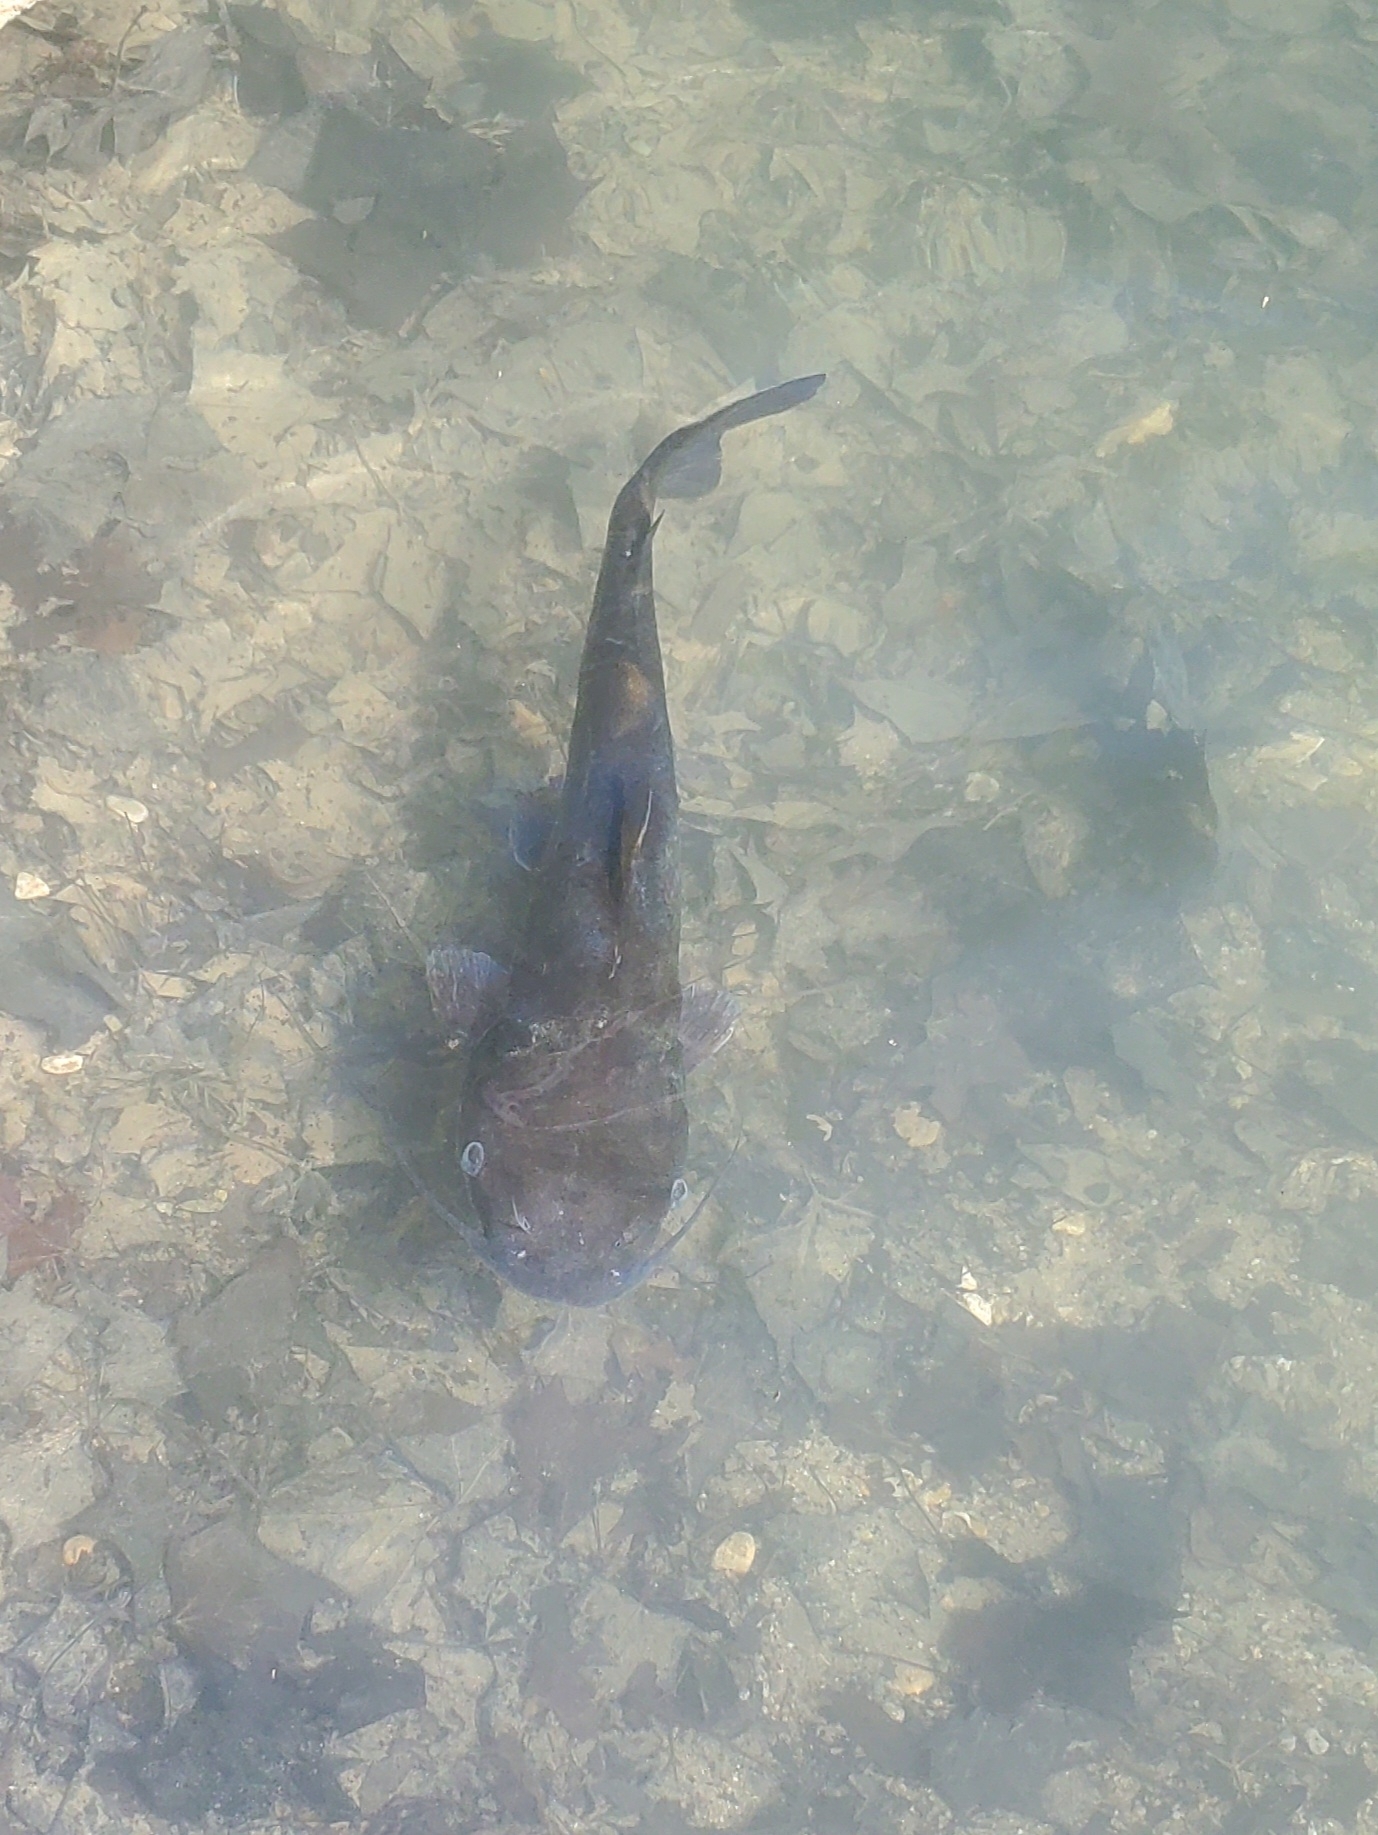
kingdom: Animalia
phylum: Chordata
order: Siluriformes
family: Ictaluridae
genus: Ictalurus
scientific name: Ictalurus punctatus
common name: Channel catfish
